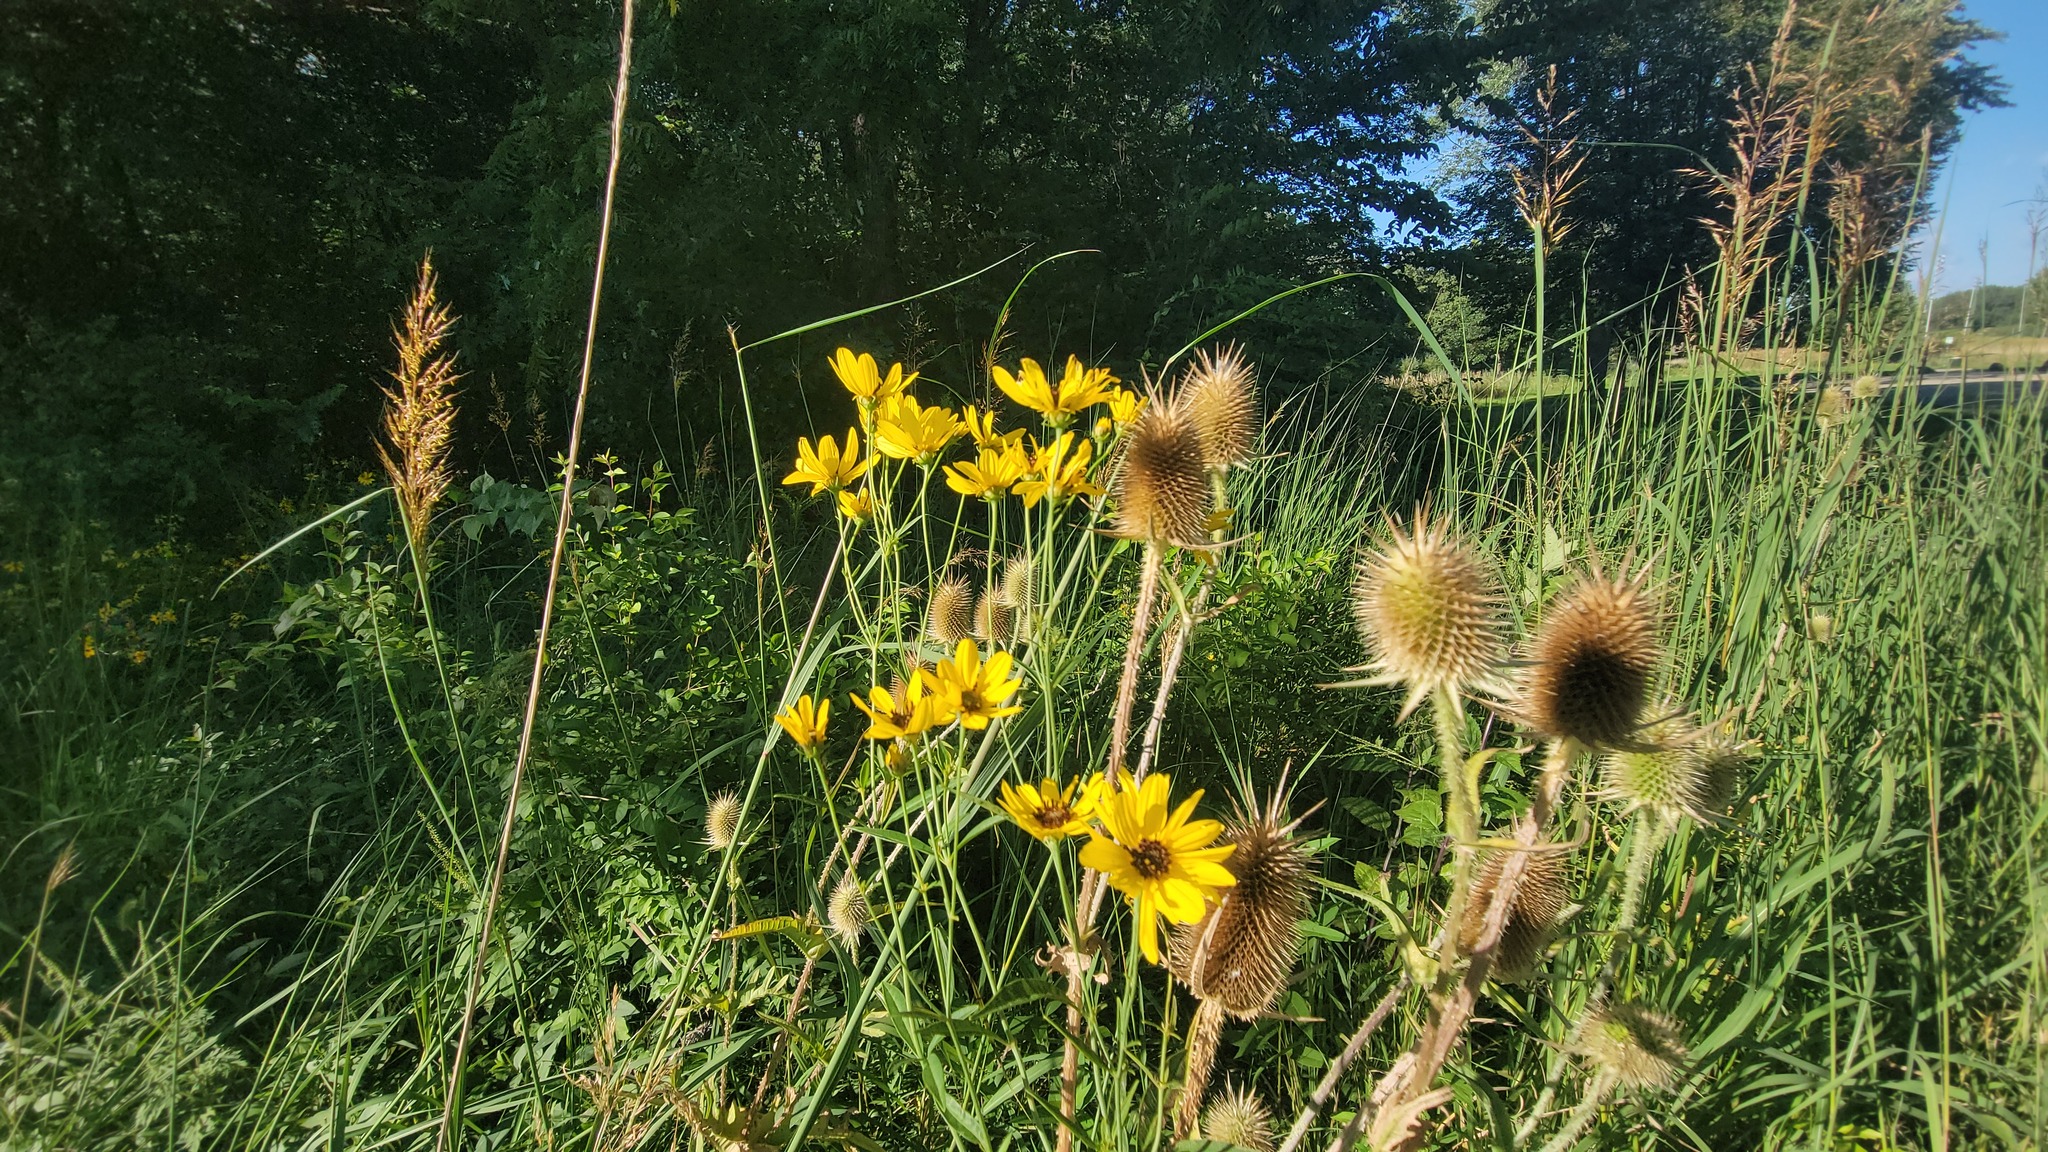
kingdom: Plantae
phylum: Tracheophyta
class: Magnoliopsida
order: Dipsacales
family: Caprifoliaceae
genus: Dipsacus
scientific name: Dipsacus laciniatus
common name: Cut-leaved teasel
